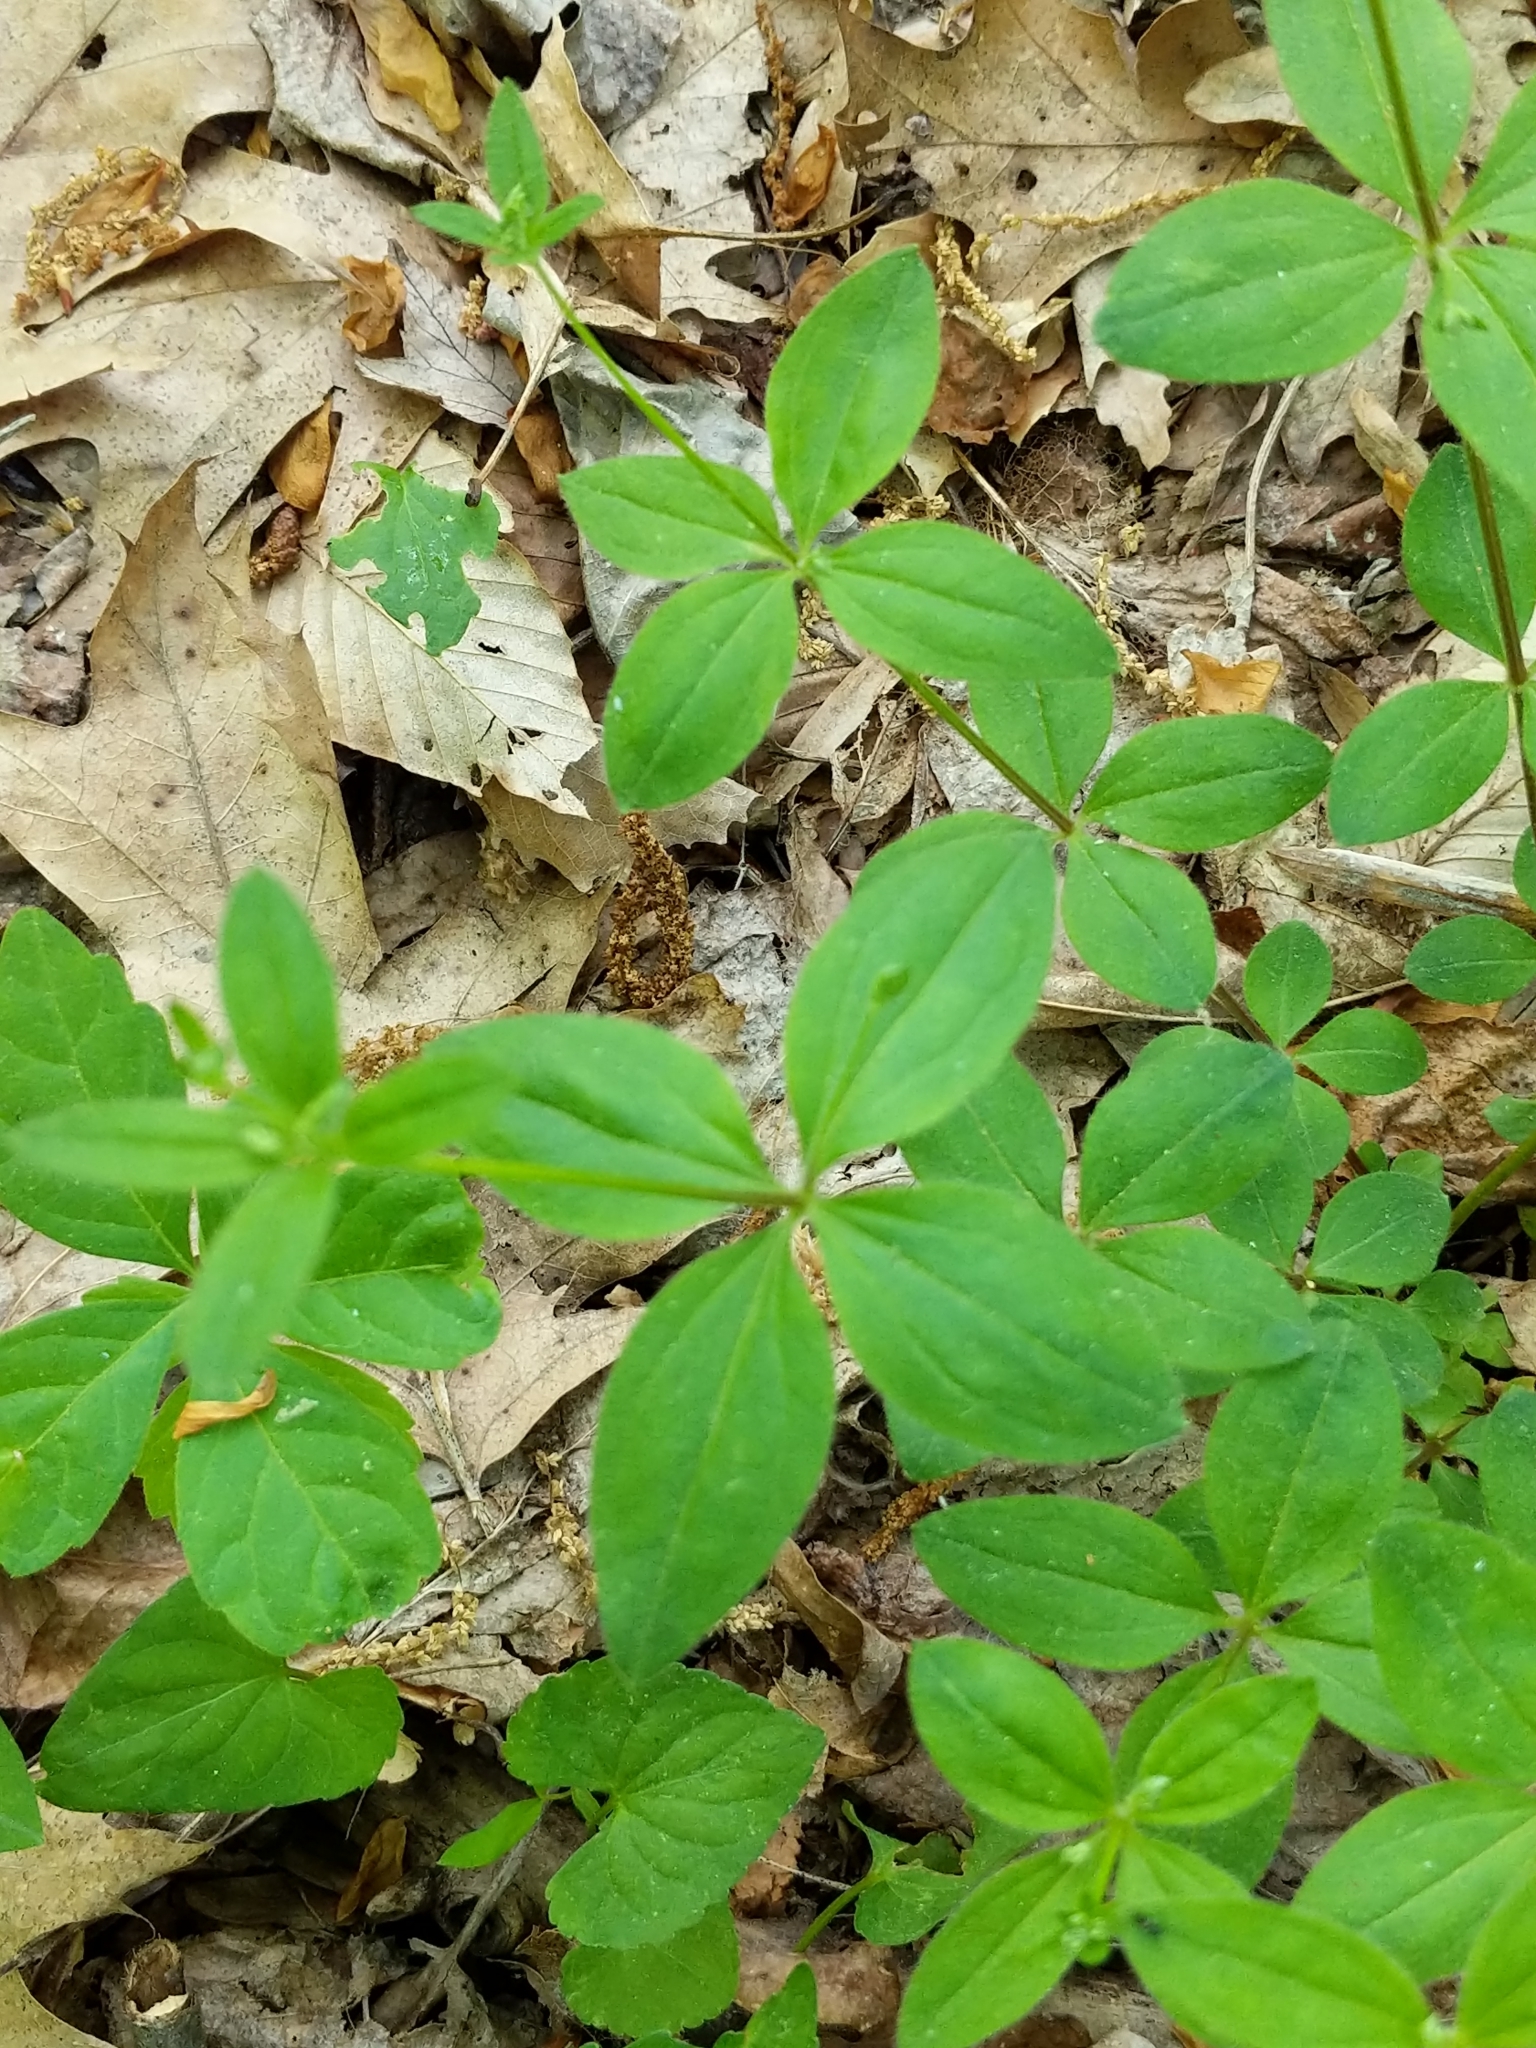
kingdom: Plantae
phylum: Tracheophyta
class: Magnoliopsida
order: Gentianales
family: Rubiaceae
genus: Galium
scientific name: Galium circaezans
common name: Forest bedstraw
